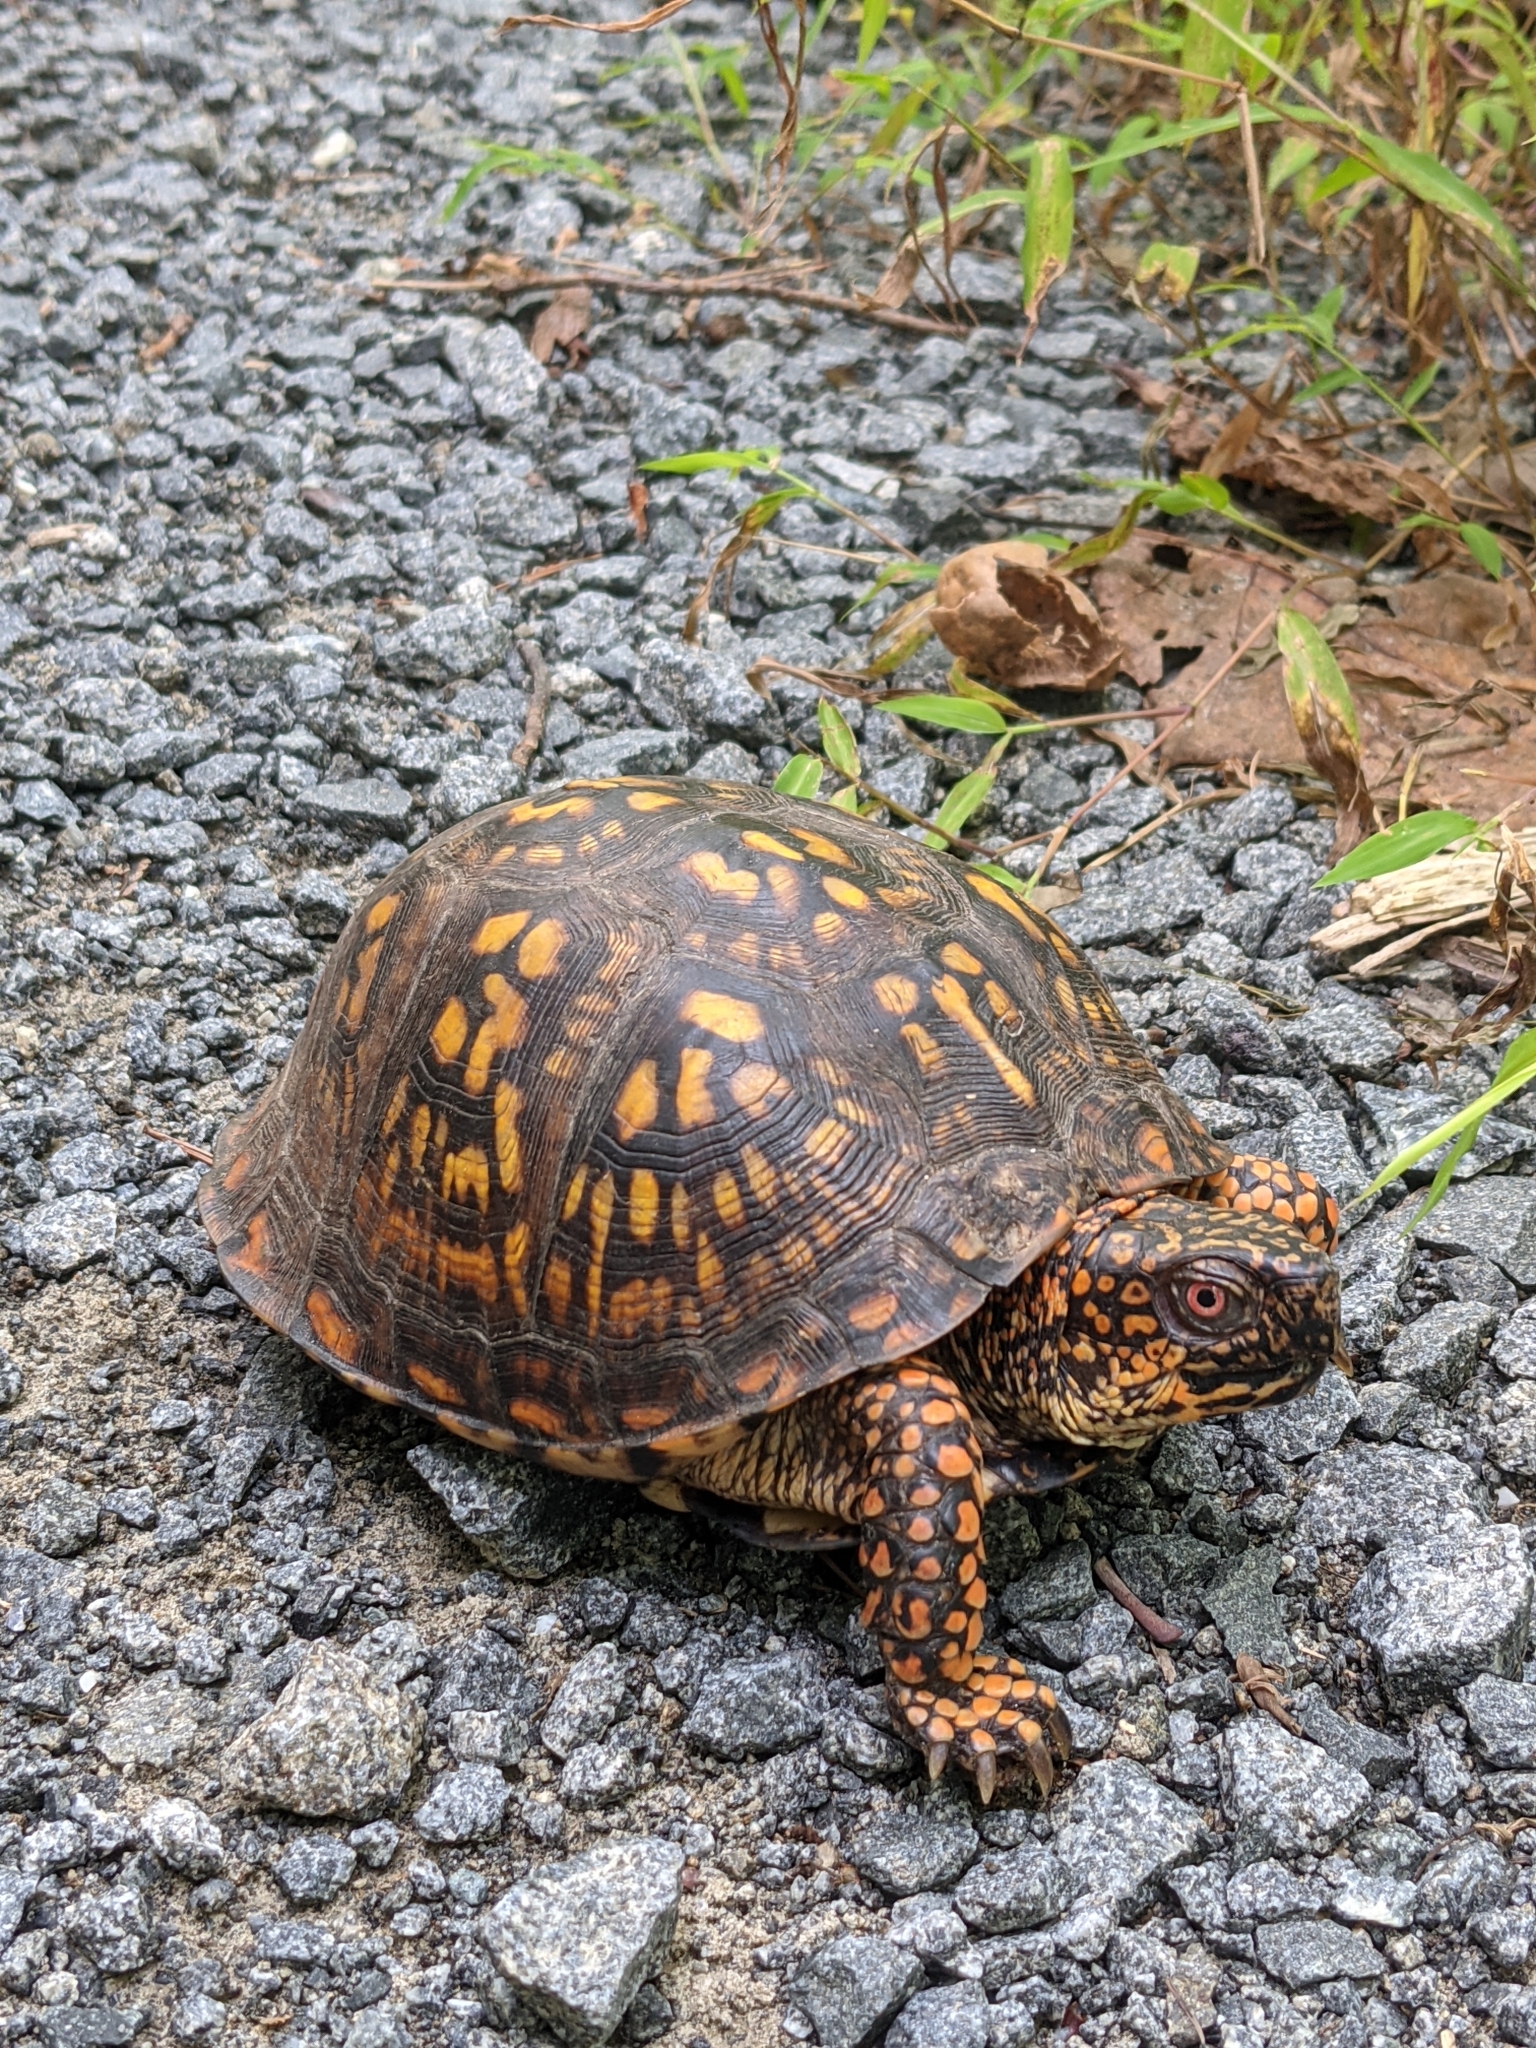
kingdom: Animalia
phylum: Chordata
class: Testudines
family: Emydidae
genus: Terrapene
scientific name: Terrapene carolina
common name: Common box turtle
